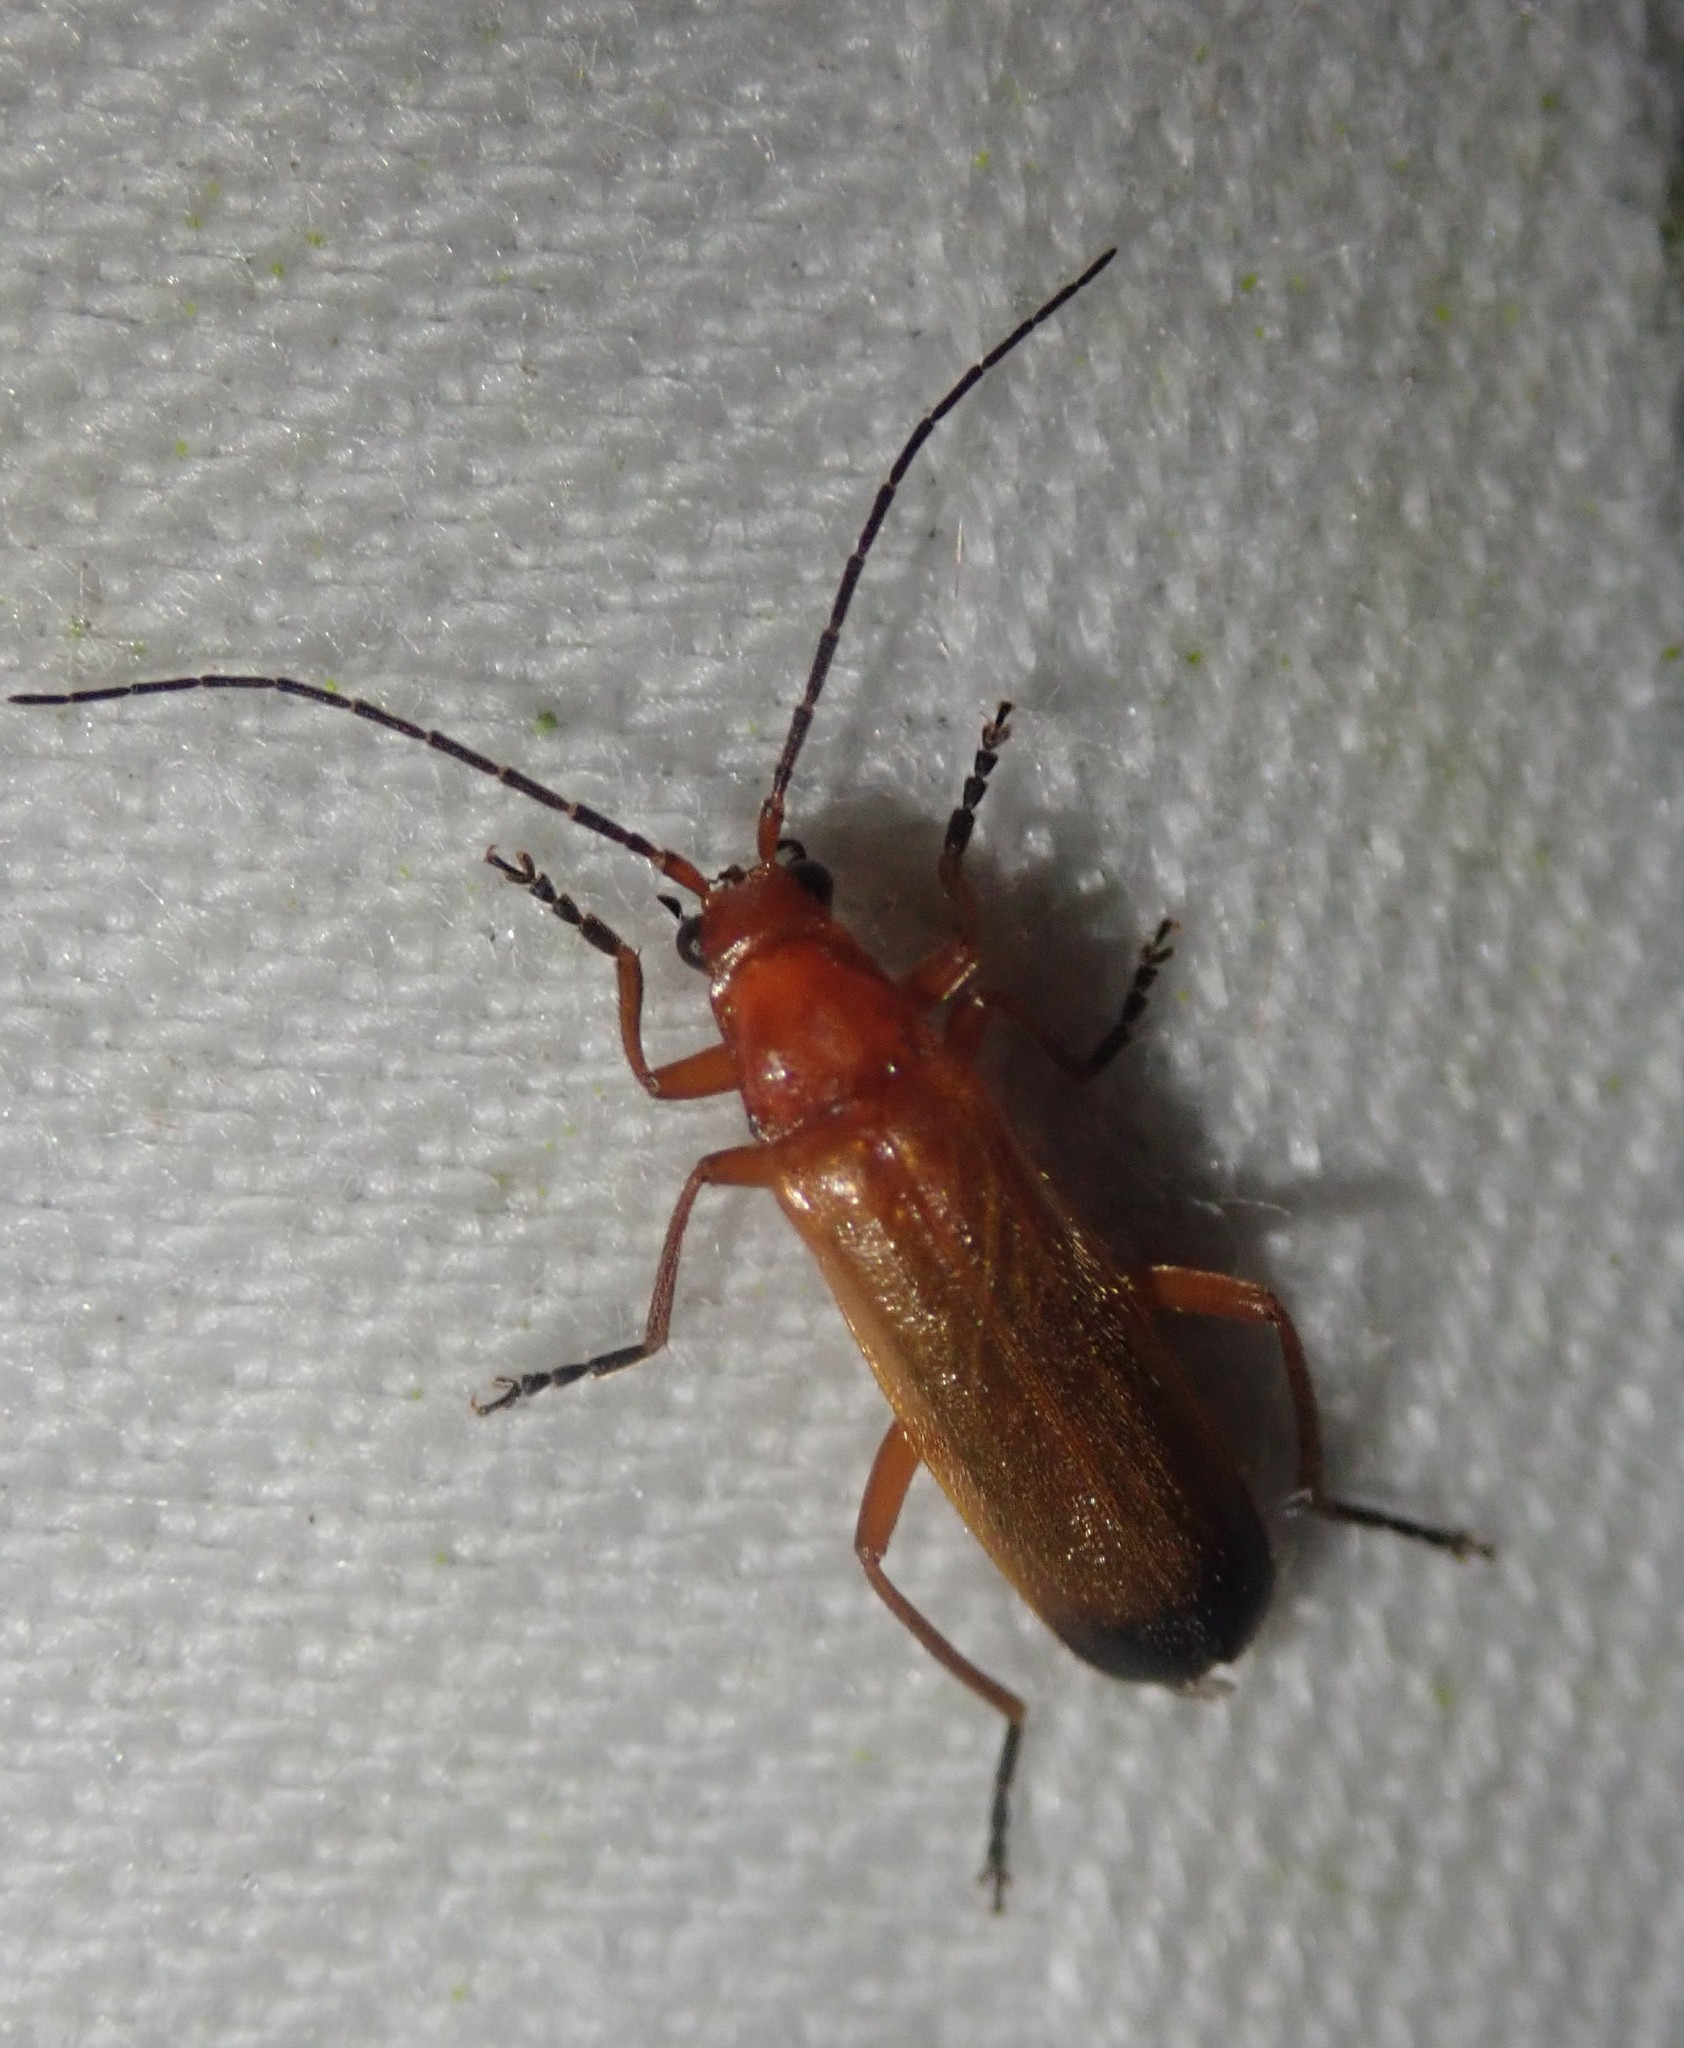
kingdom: Animalia
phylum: Arthropoda
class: Insecta
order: Coleoptera
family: Cantharidae
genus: Rhagonycha
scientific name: Rhagonycha fulva
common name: Common red soldier beetle
